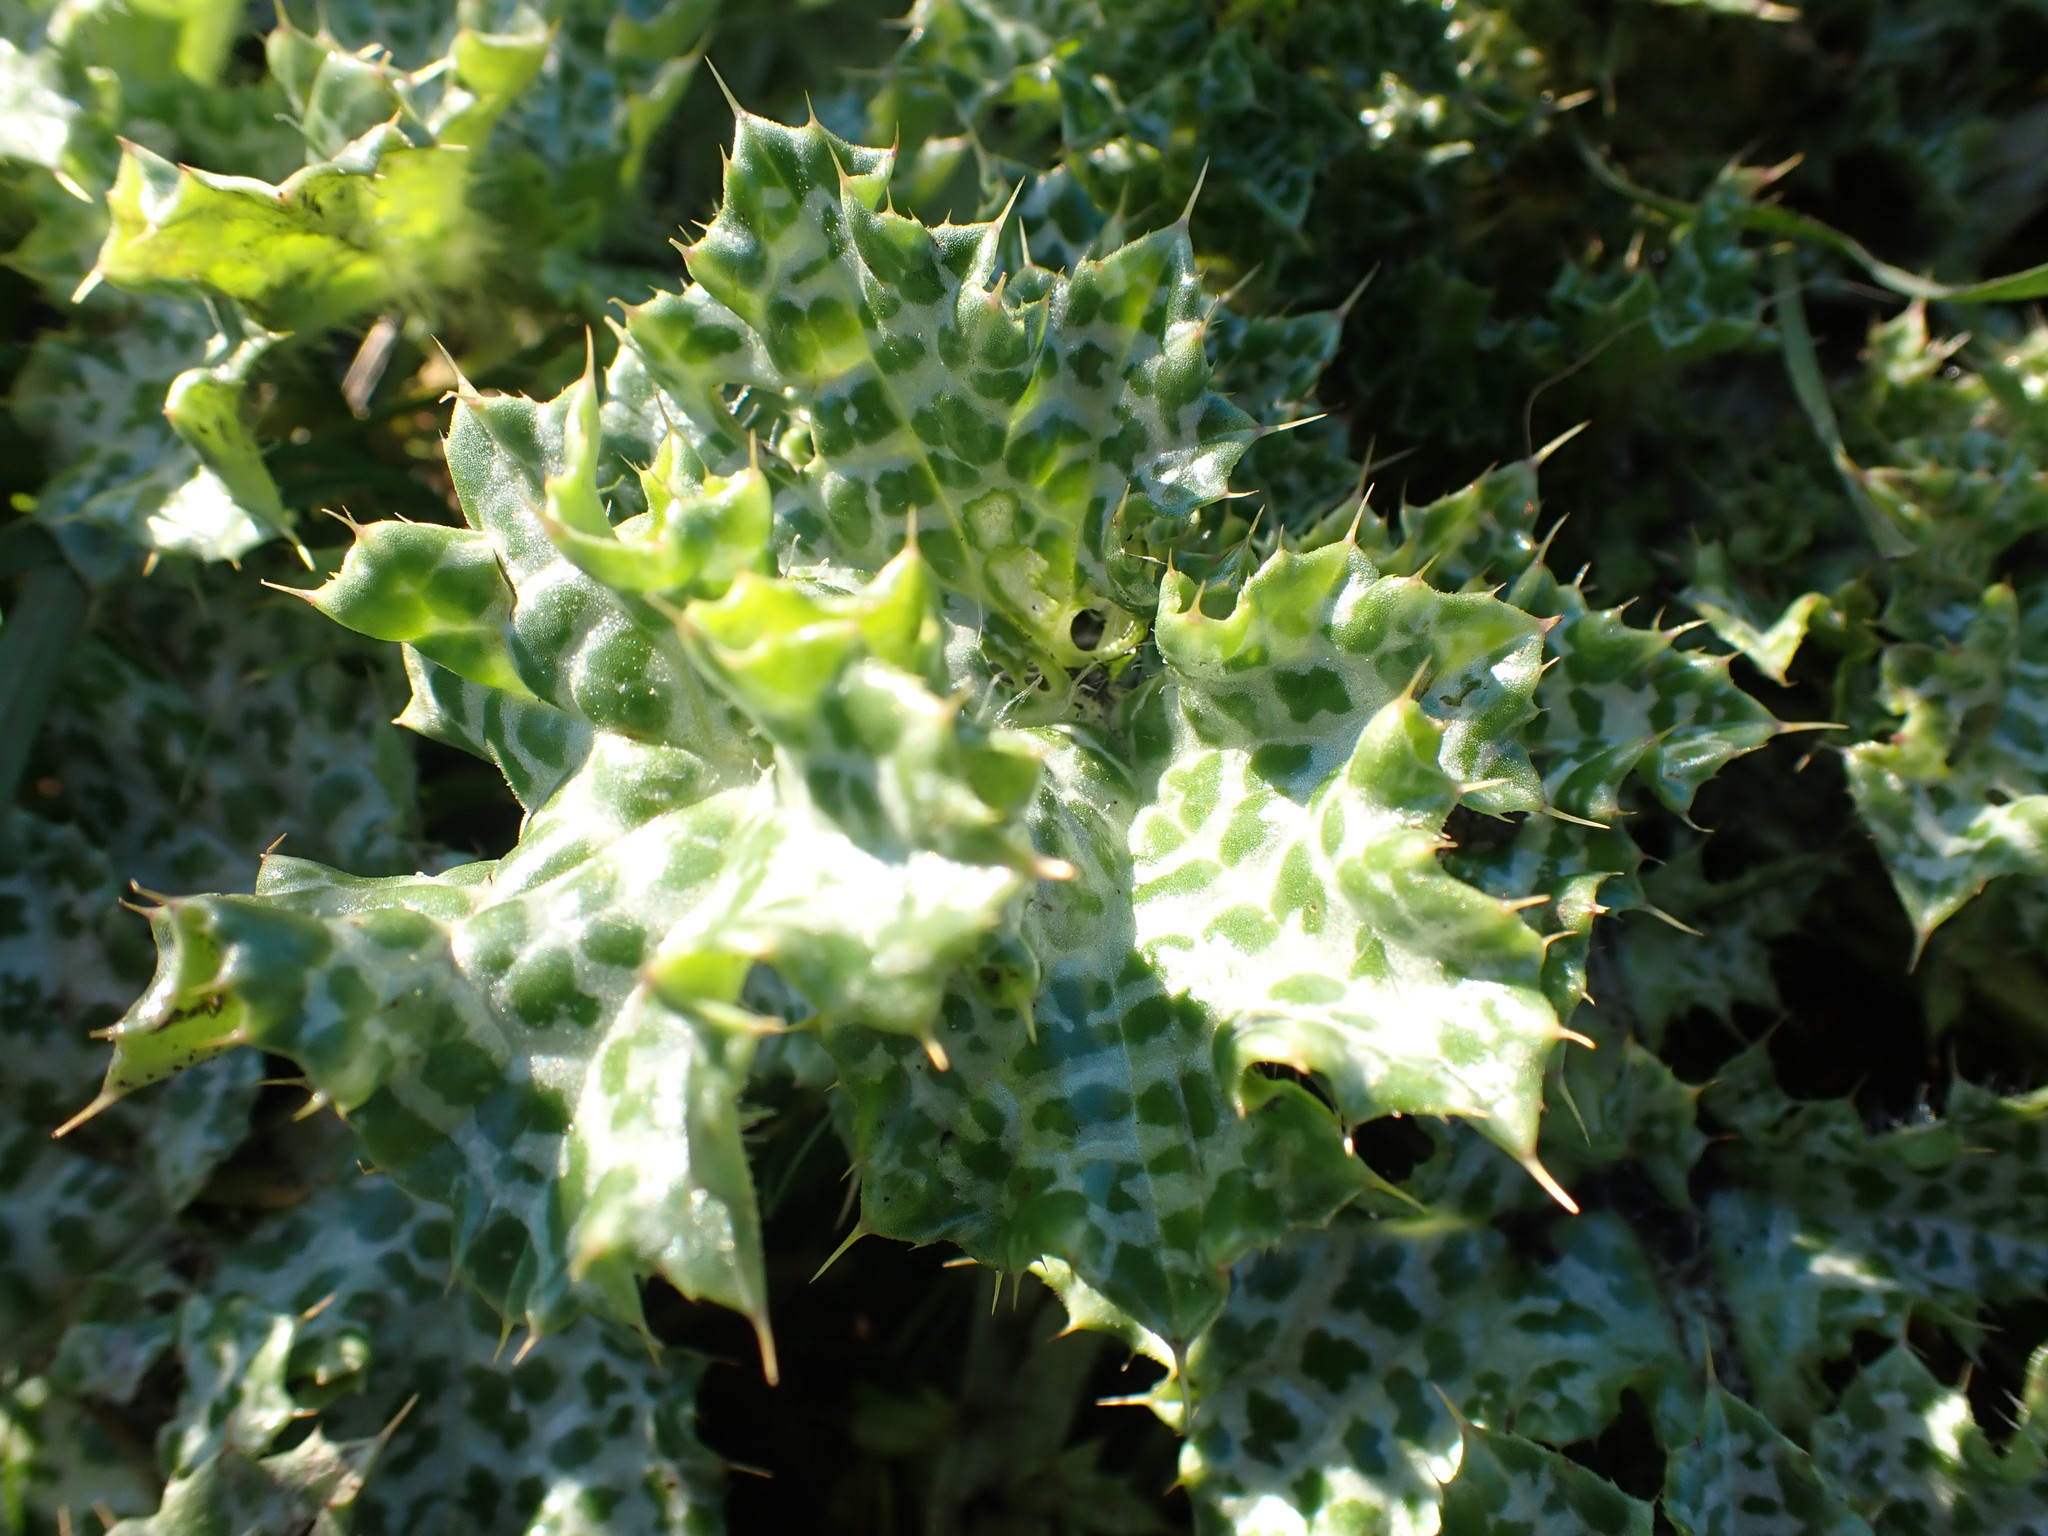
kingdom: Plantae
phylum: Tracheophyta
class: Magnoliopsida
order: Asterales
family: Asteraceae
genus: Silybum
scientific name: Silybum marianum
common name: Milk thistle
